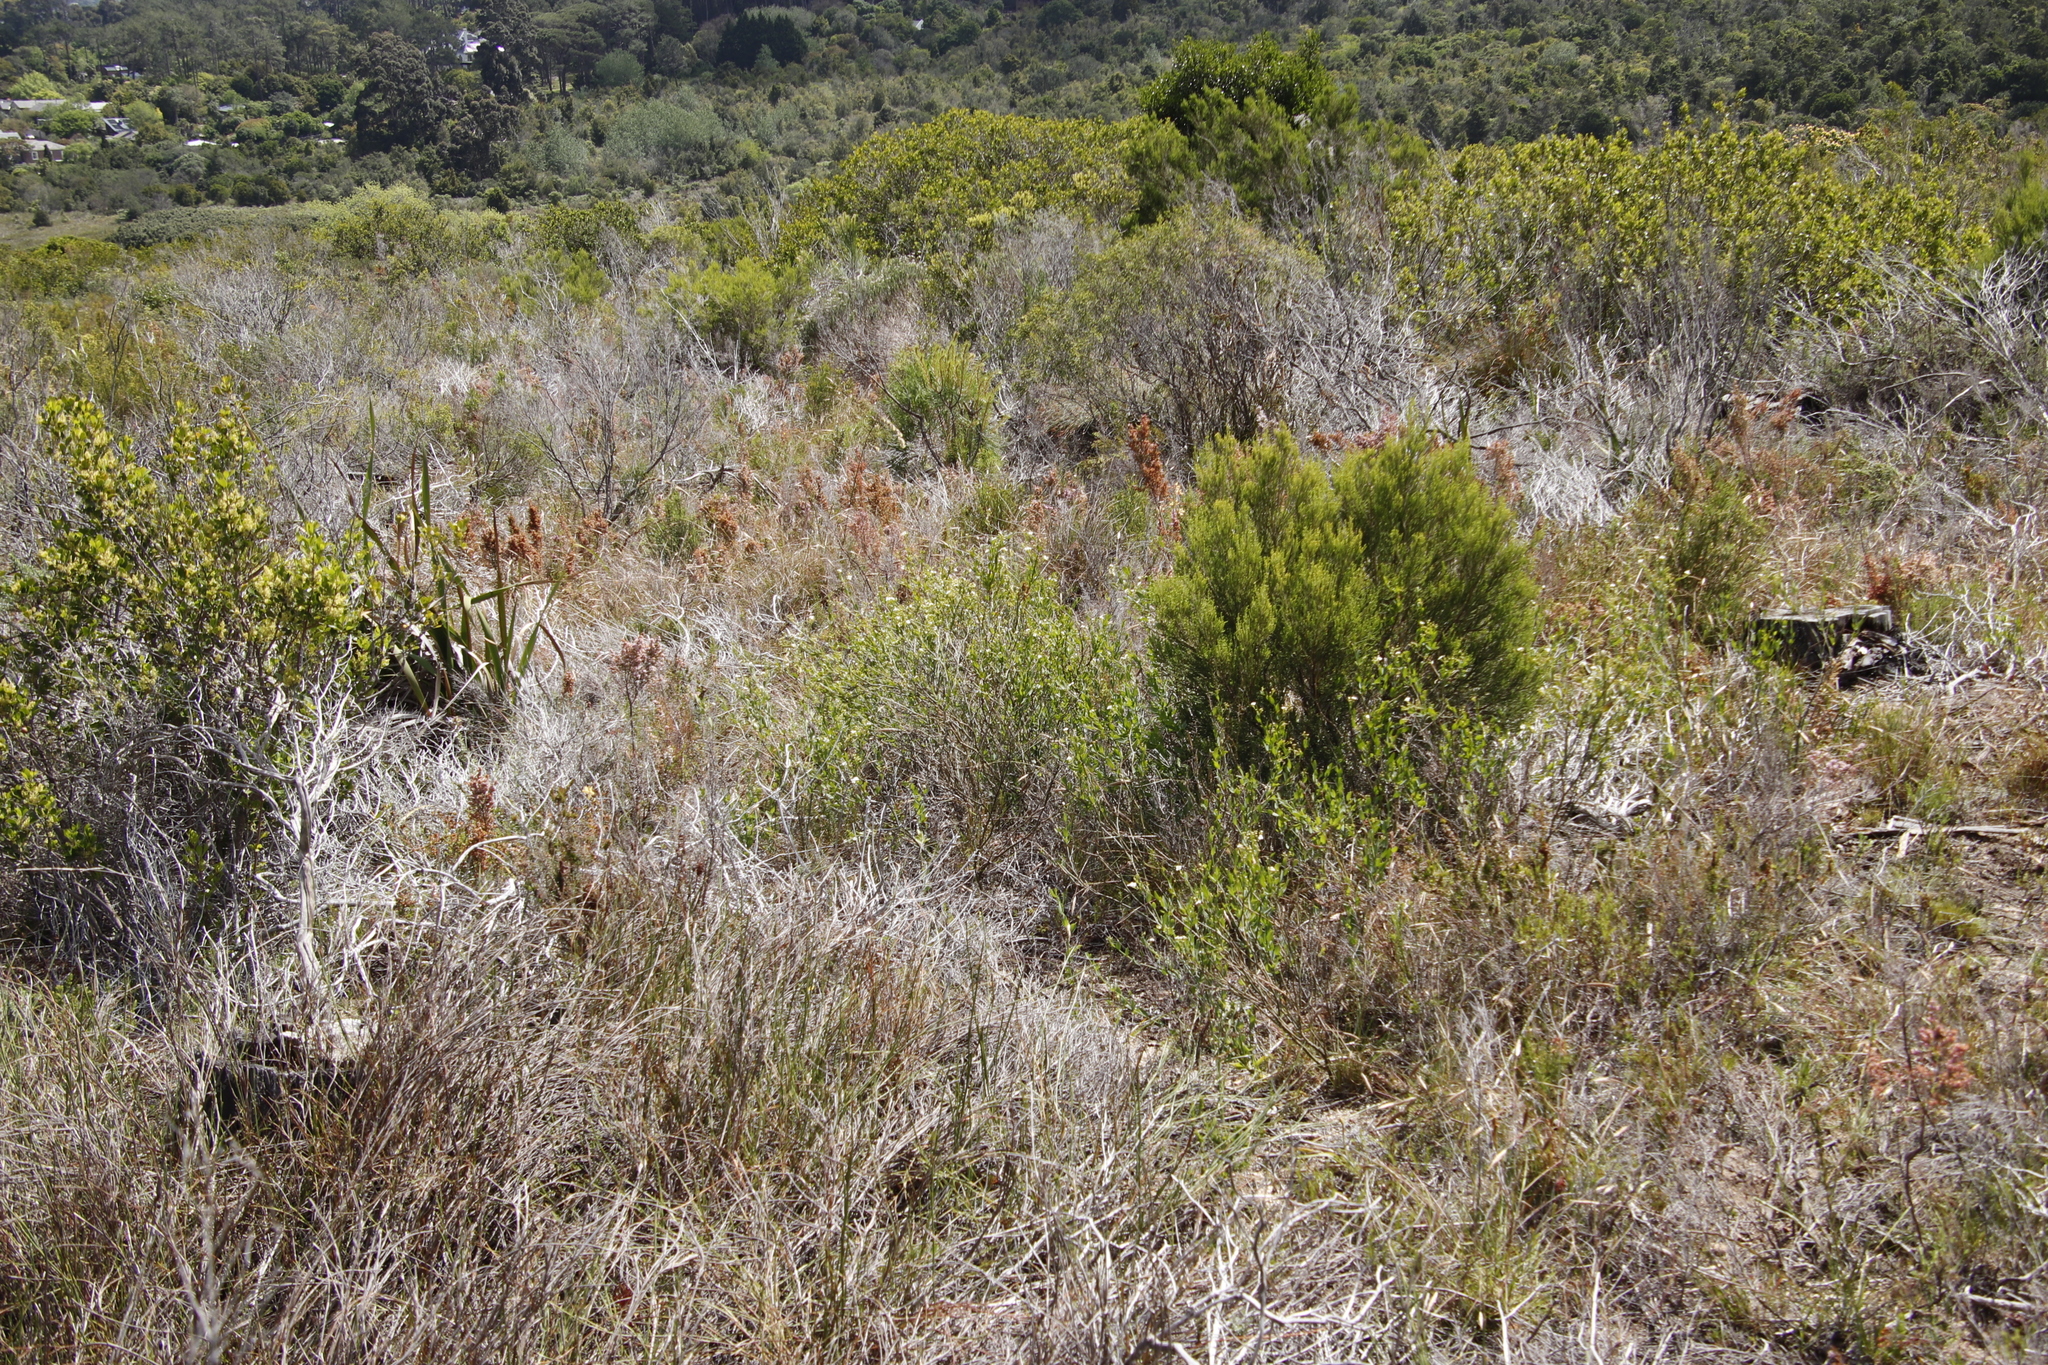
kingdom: Plantae
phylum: Tracheophyta
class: Magnoliopsida
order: Solanales
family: Montiniaceae
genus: Montinia
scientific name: Montinia caryophyllacea
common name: Wild clove-bush
